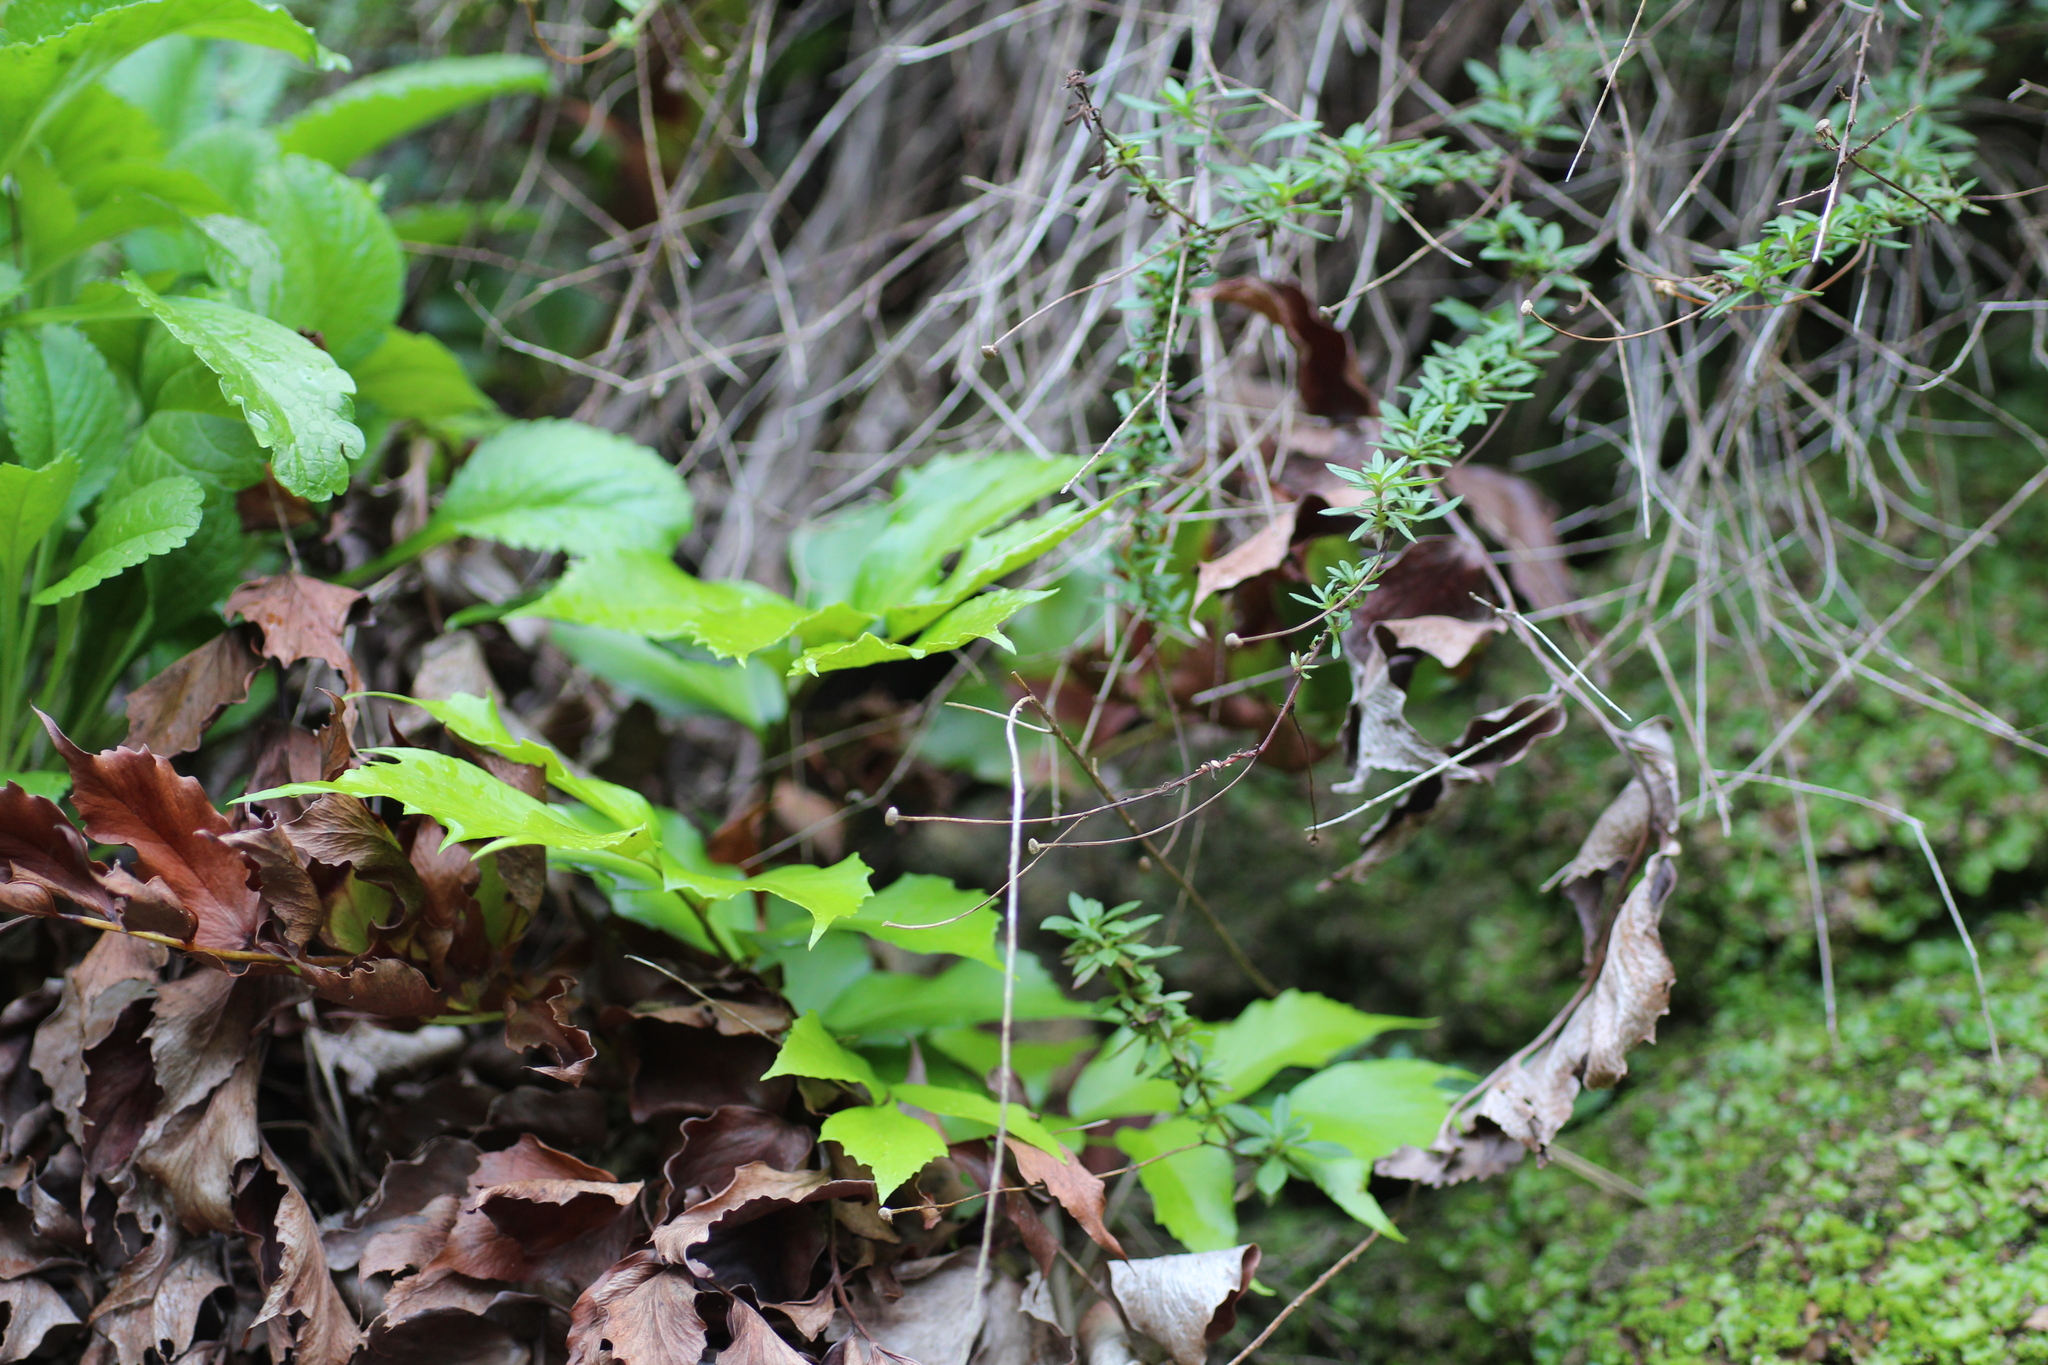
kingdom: Plantae
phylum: Tracheophyta
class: Polypodiopsida
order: Polypodiales
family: Dryopteridaceae
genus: Cyrtomium
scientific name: Cyrtomium falcatum
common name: House holly-fern
